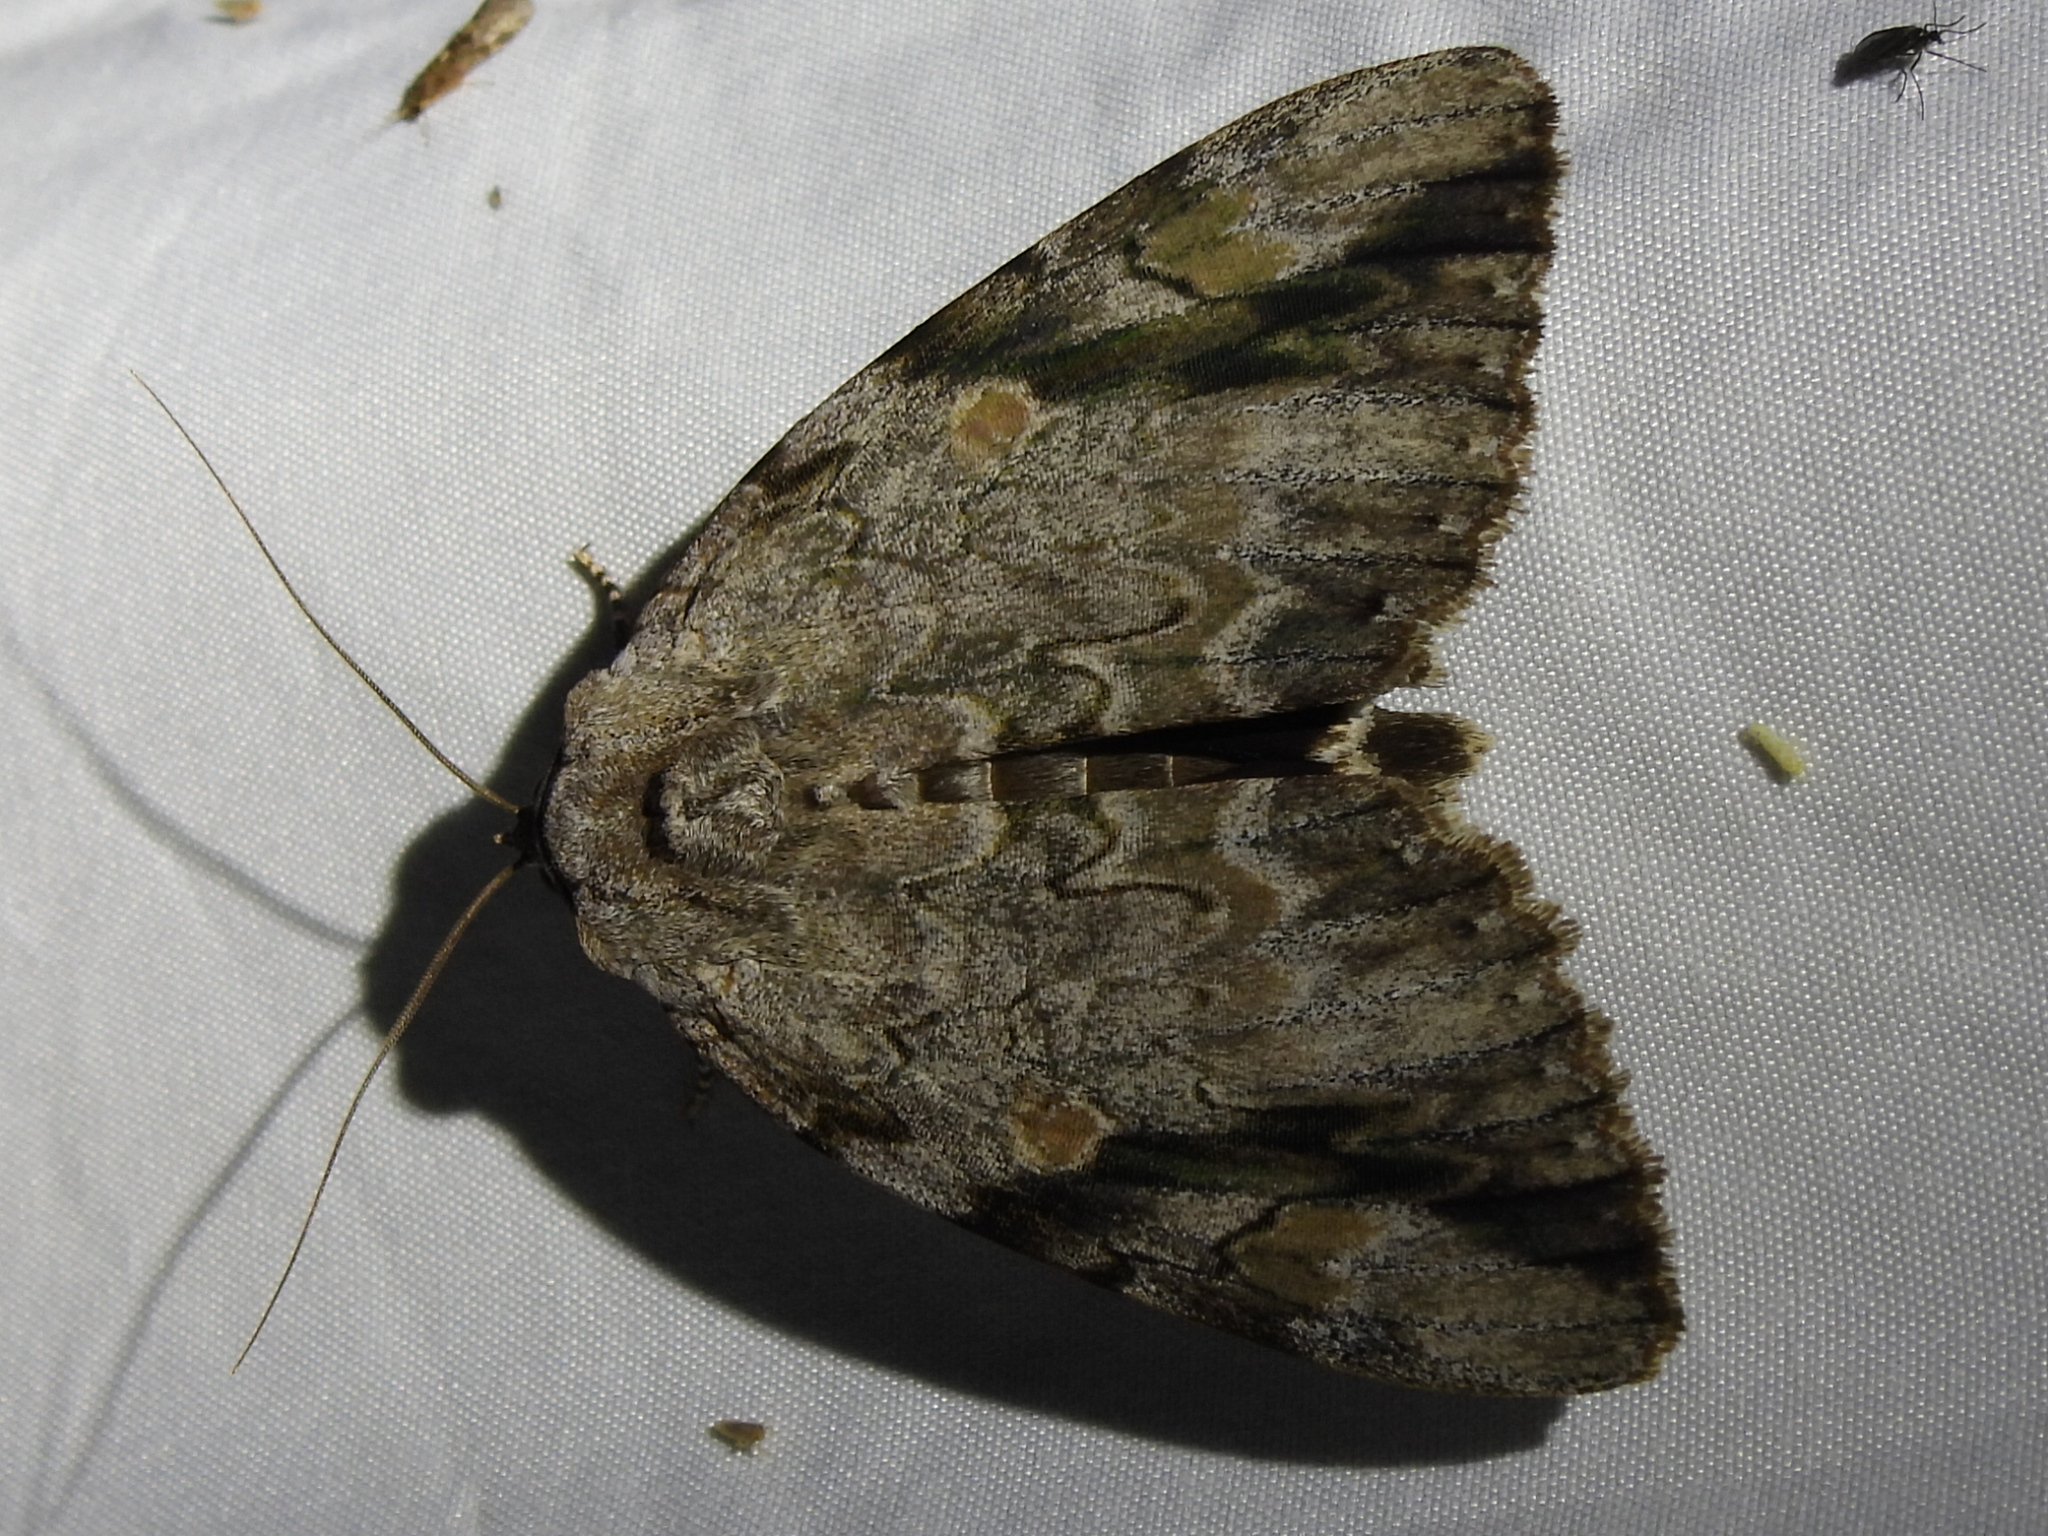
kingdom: Animalia
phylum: Arthropoda
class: Insecta
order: Lepidoptera
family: Erebidae
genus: Catocala
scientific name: Catocala maestosa
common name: Sad underwing
